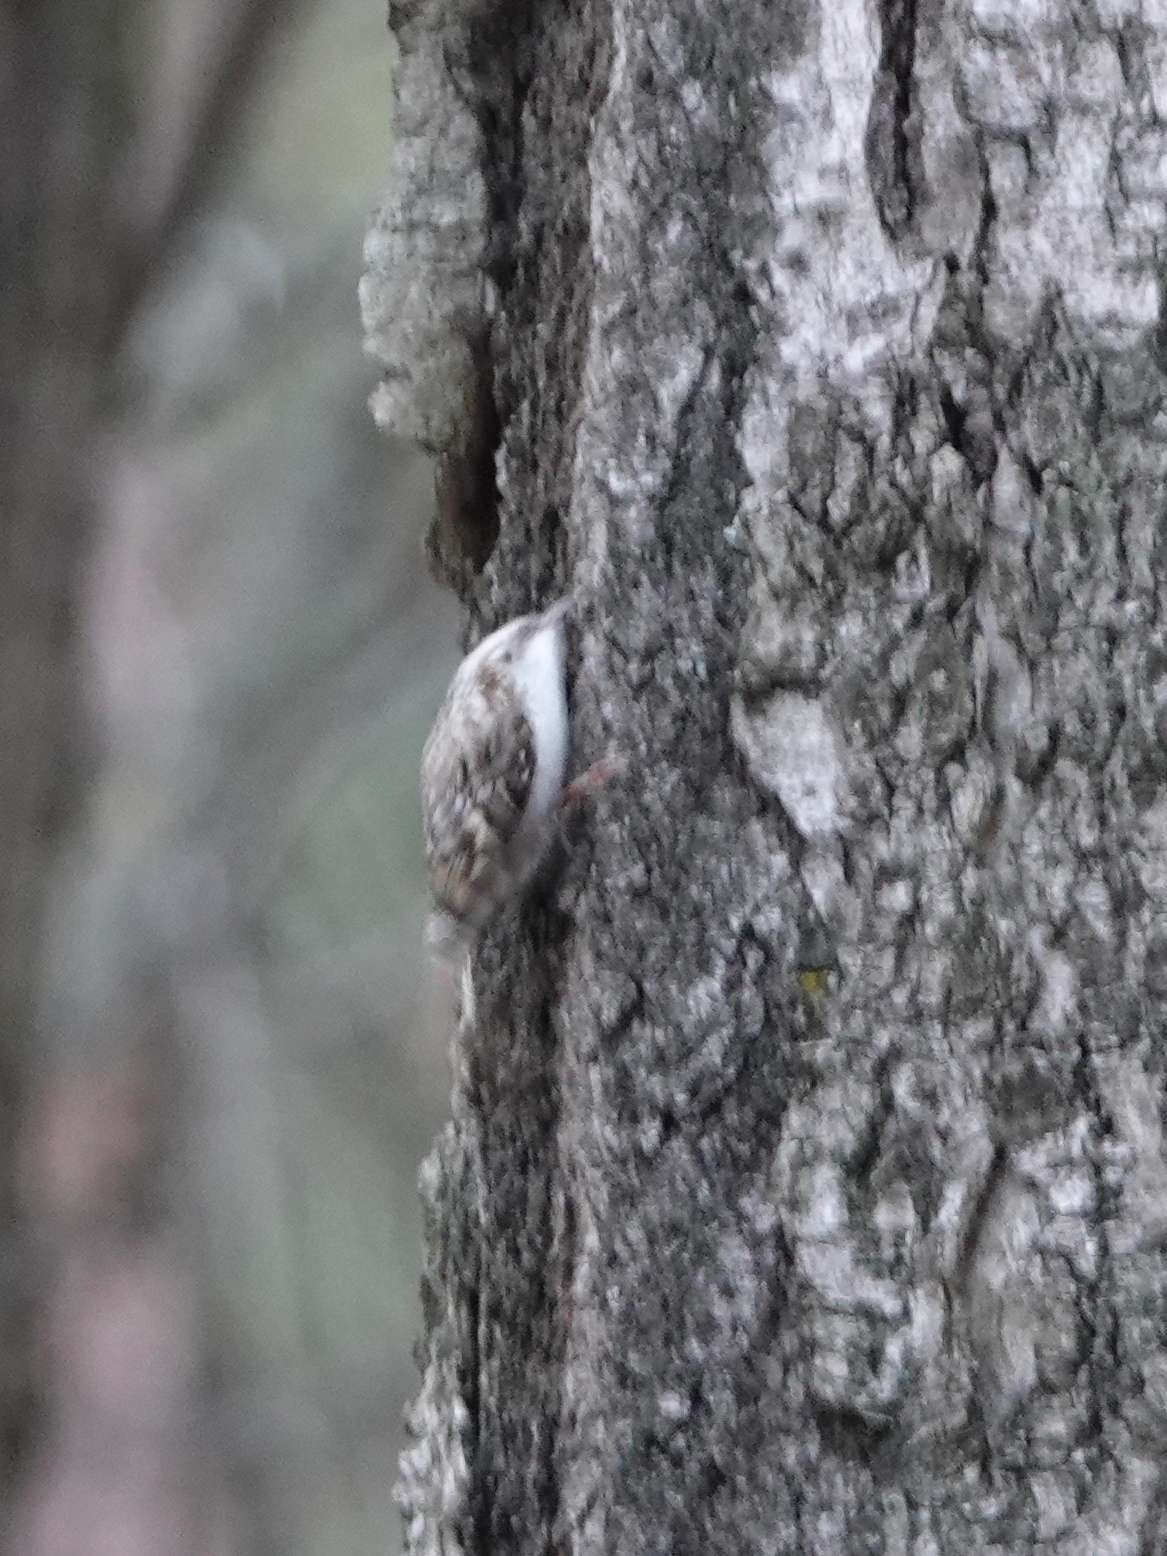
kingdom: Animalia
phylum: Chordata
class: Aves
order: Passeriformes
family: Certhiidae
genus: Certhia
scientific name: Certhia familiaris
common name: Eurasian treecreeper
